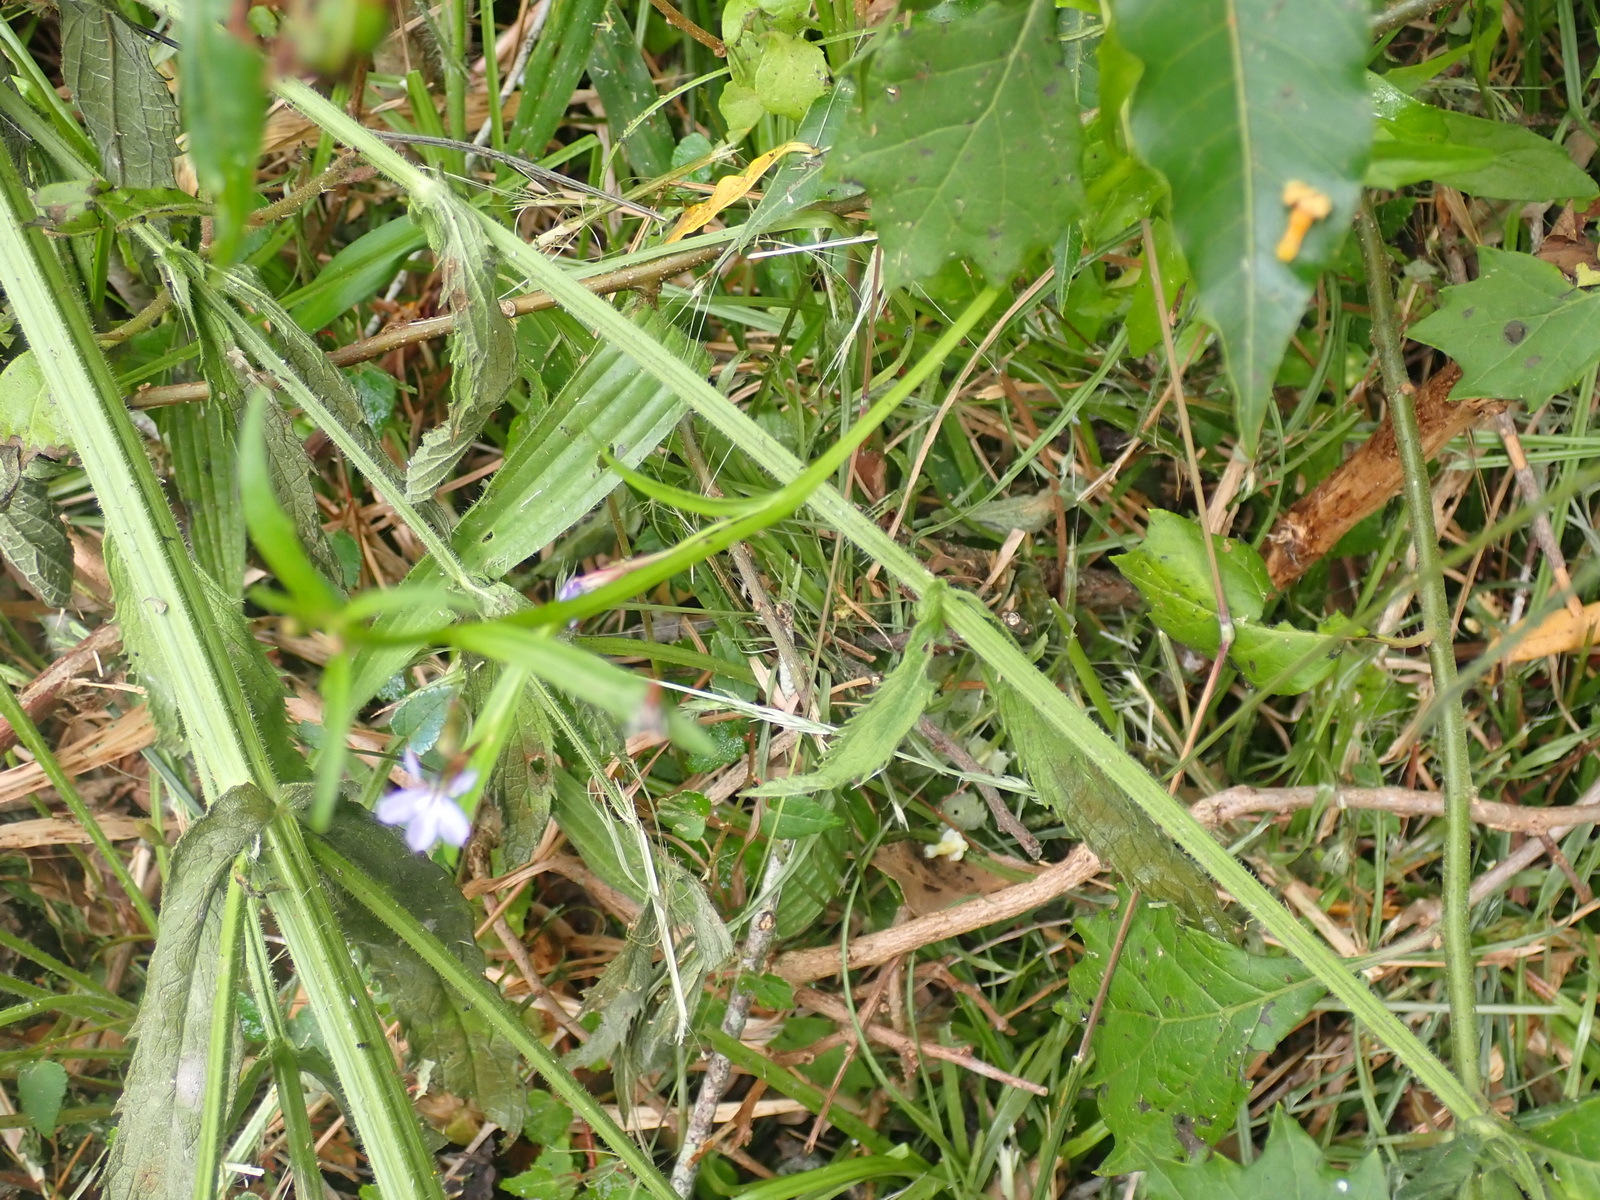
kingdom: Plantae
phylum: Tracheophyta
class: Magnoliopsida
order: Asterales
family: Campanulaceae
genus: Lobelia
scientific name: Lobelia anceps
